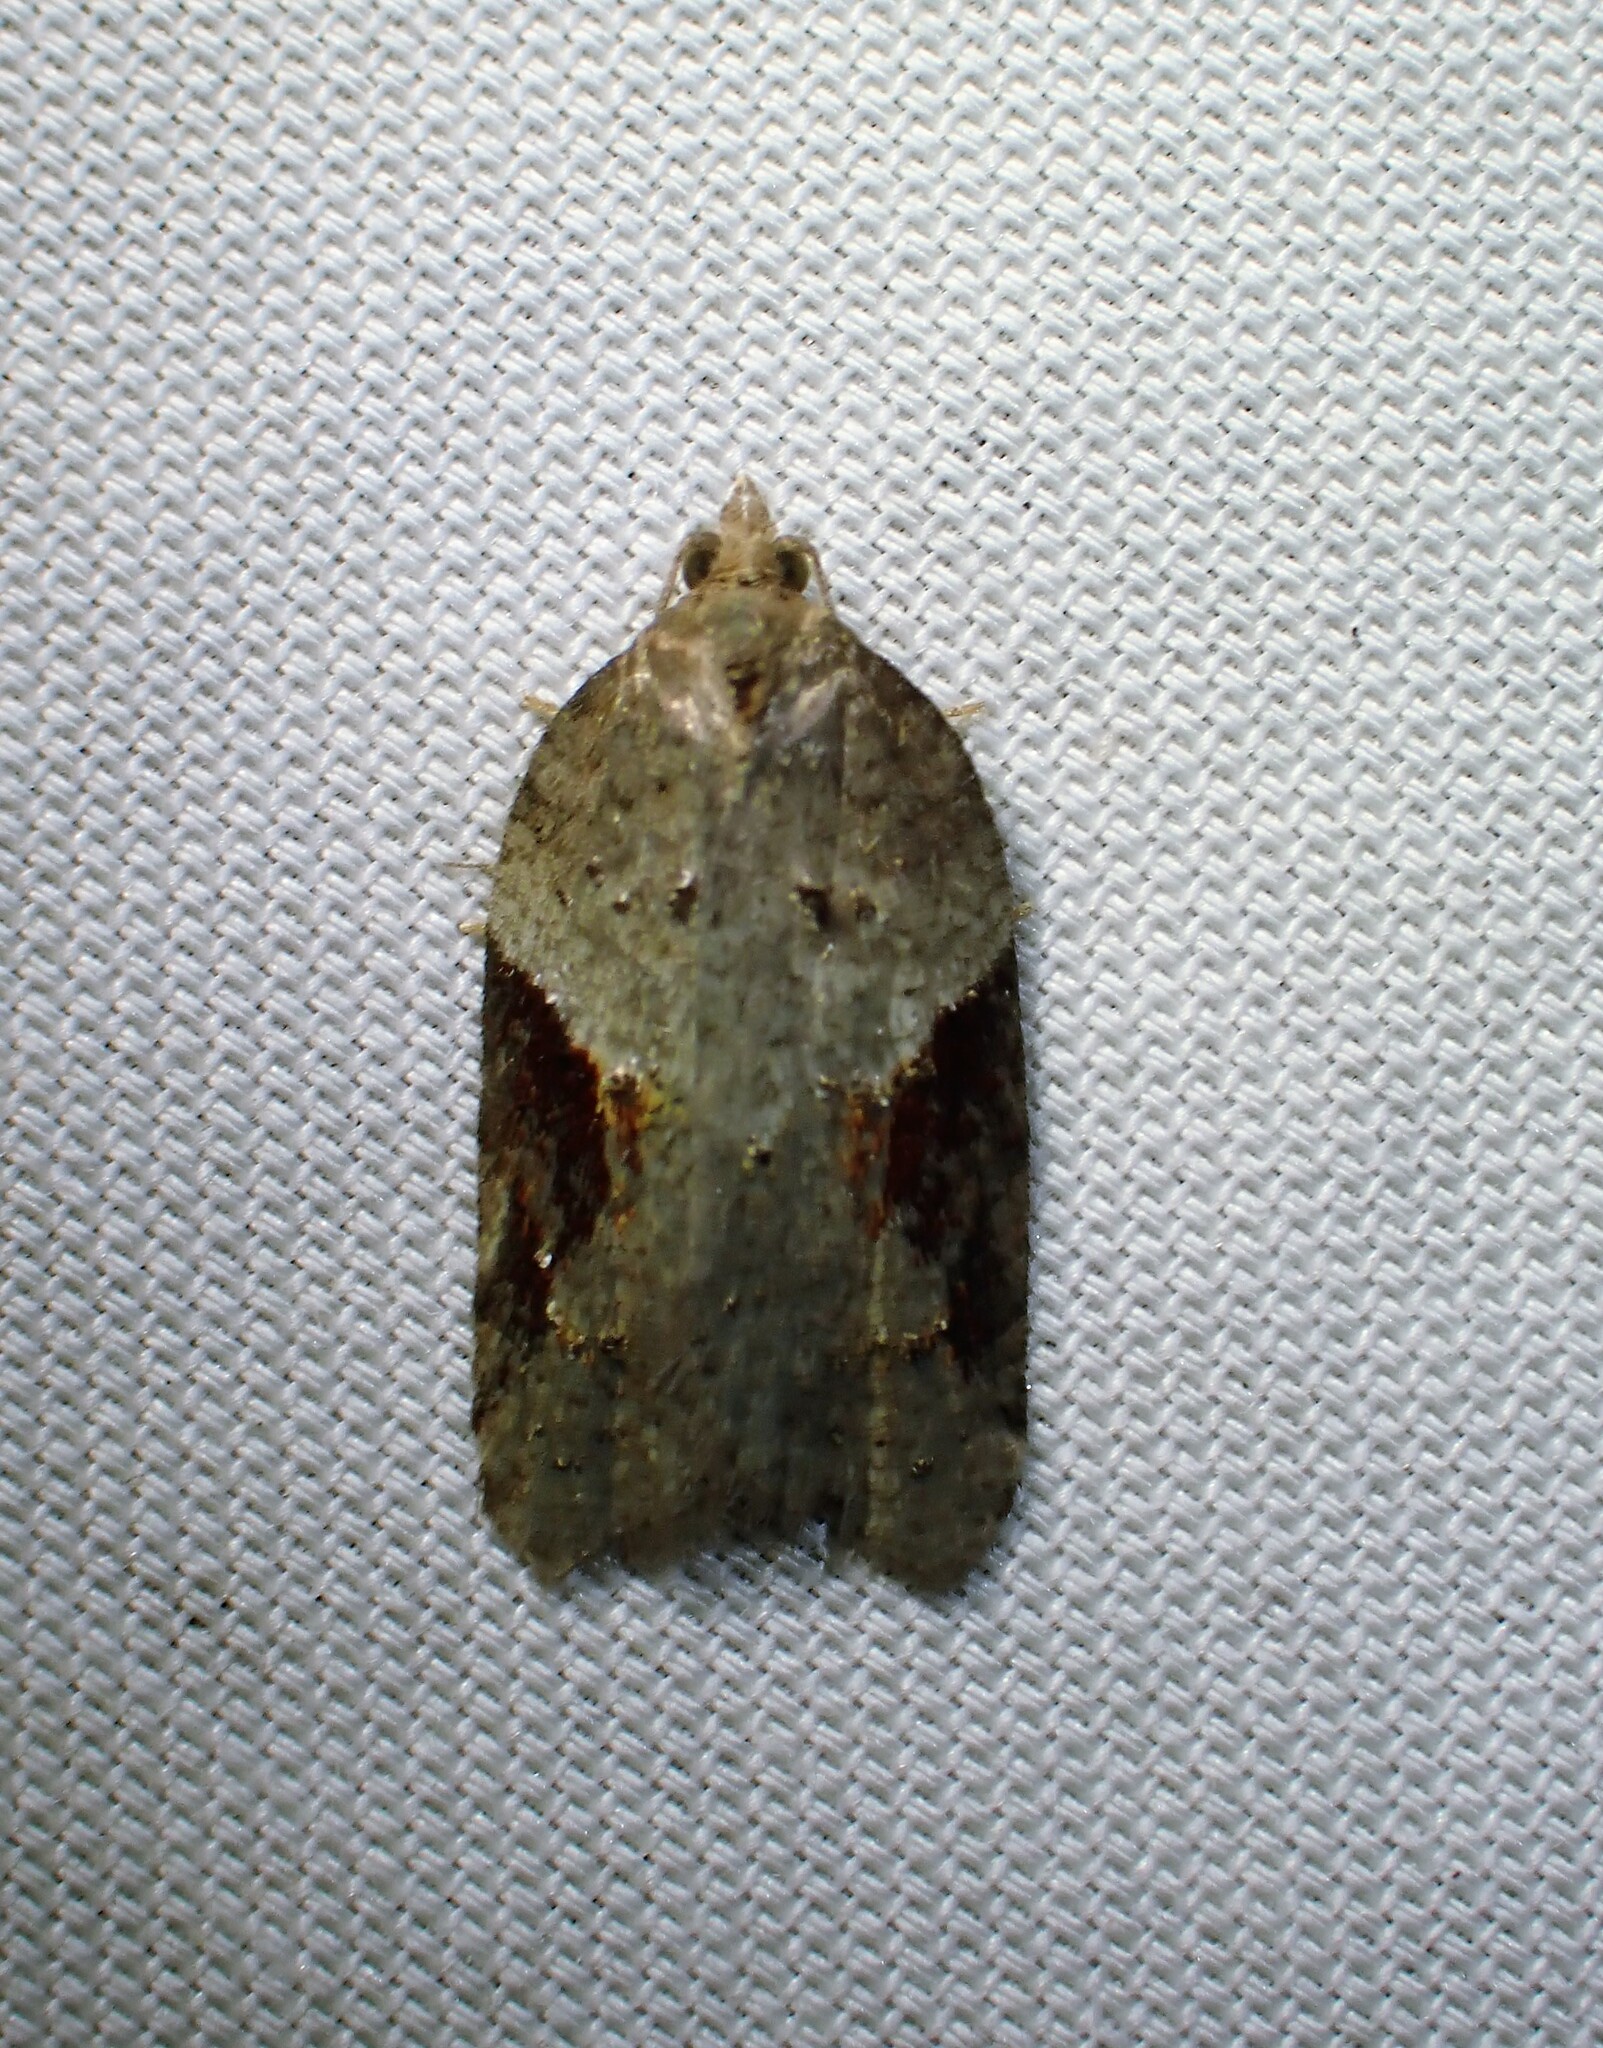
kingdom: Animalia
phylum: Arthropoda
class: Insecta
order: Lepidoptera
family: Tortricidae
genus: Acleris
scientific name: Acleris macdunnoughi
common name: Macdunnough's acleris
